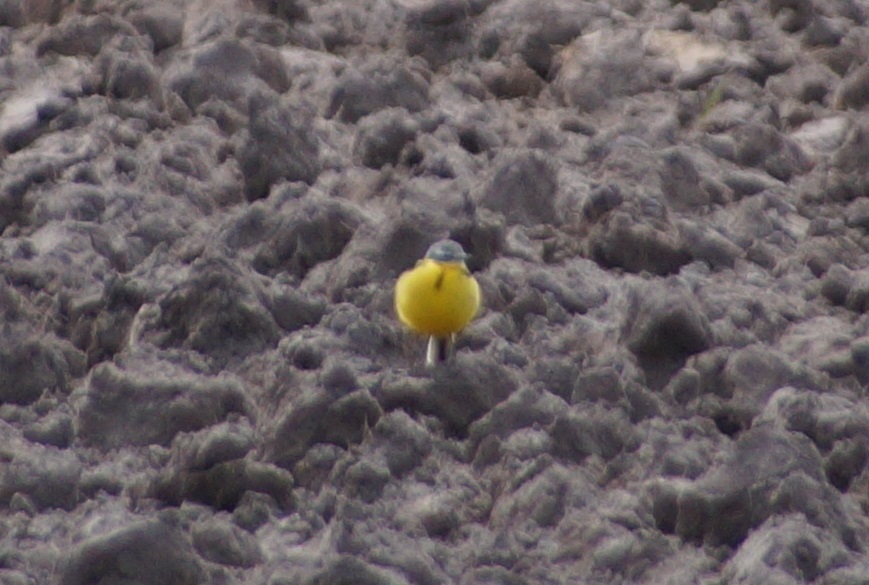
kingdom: Animalia
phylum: Chordata
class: Aves
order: Passeriformes
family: Motacillidae
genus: Motacilla
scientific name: Motacilla flava
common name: Western yellow wagtail
